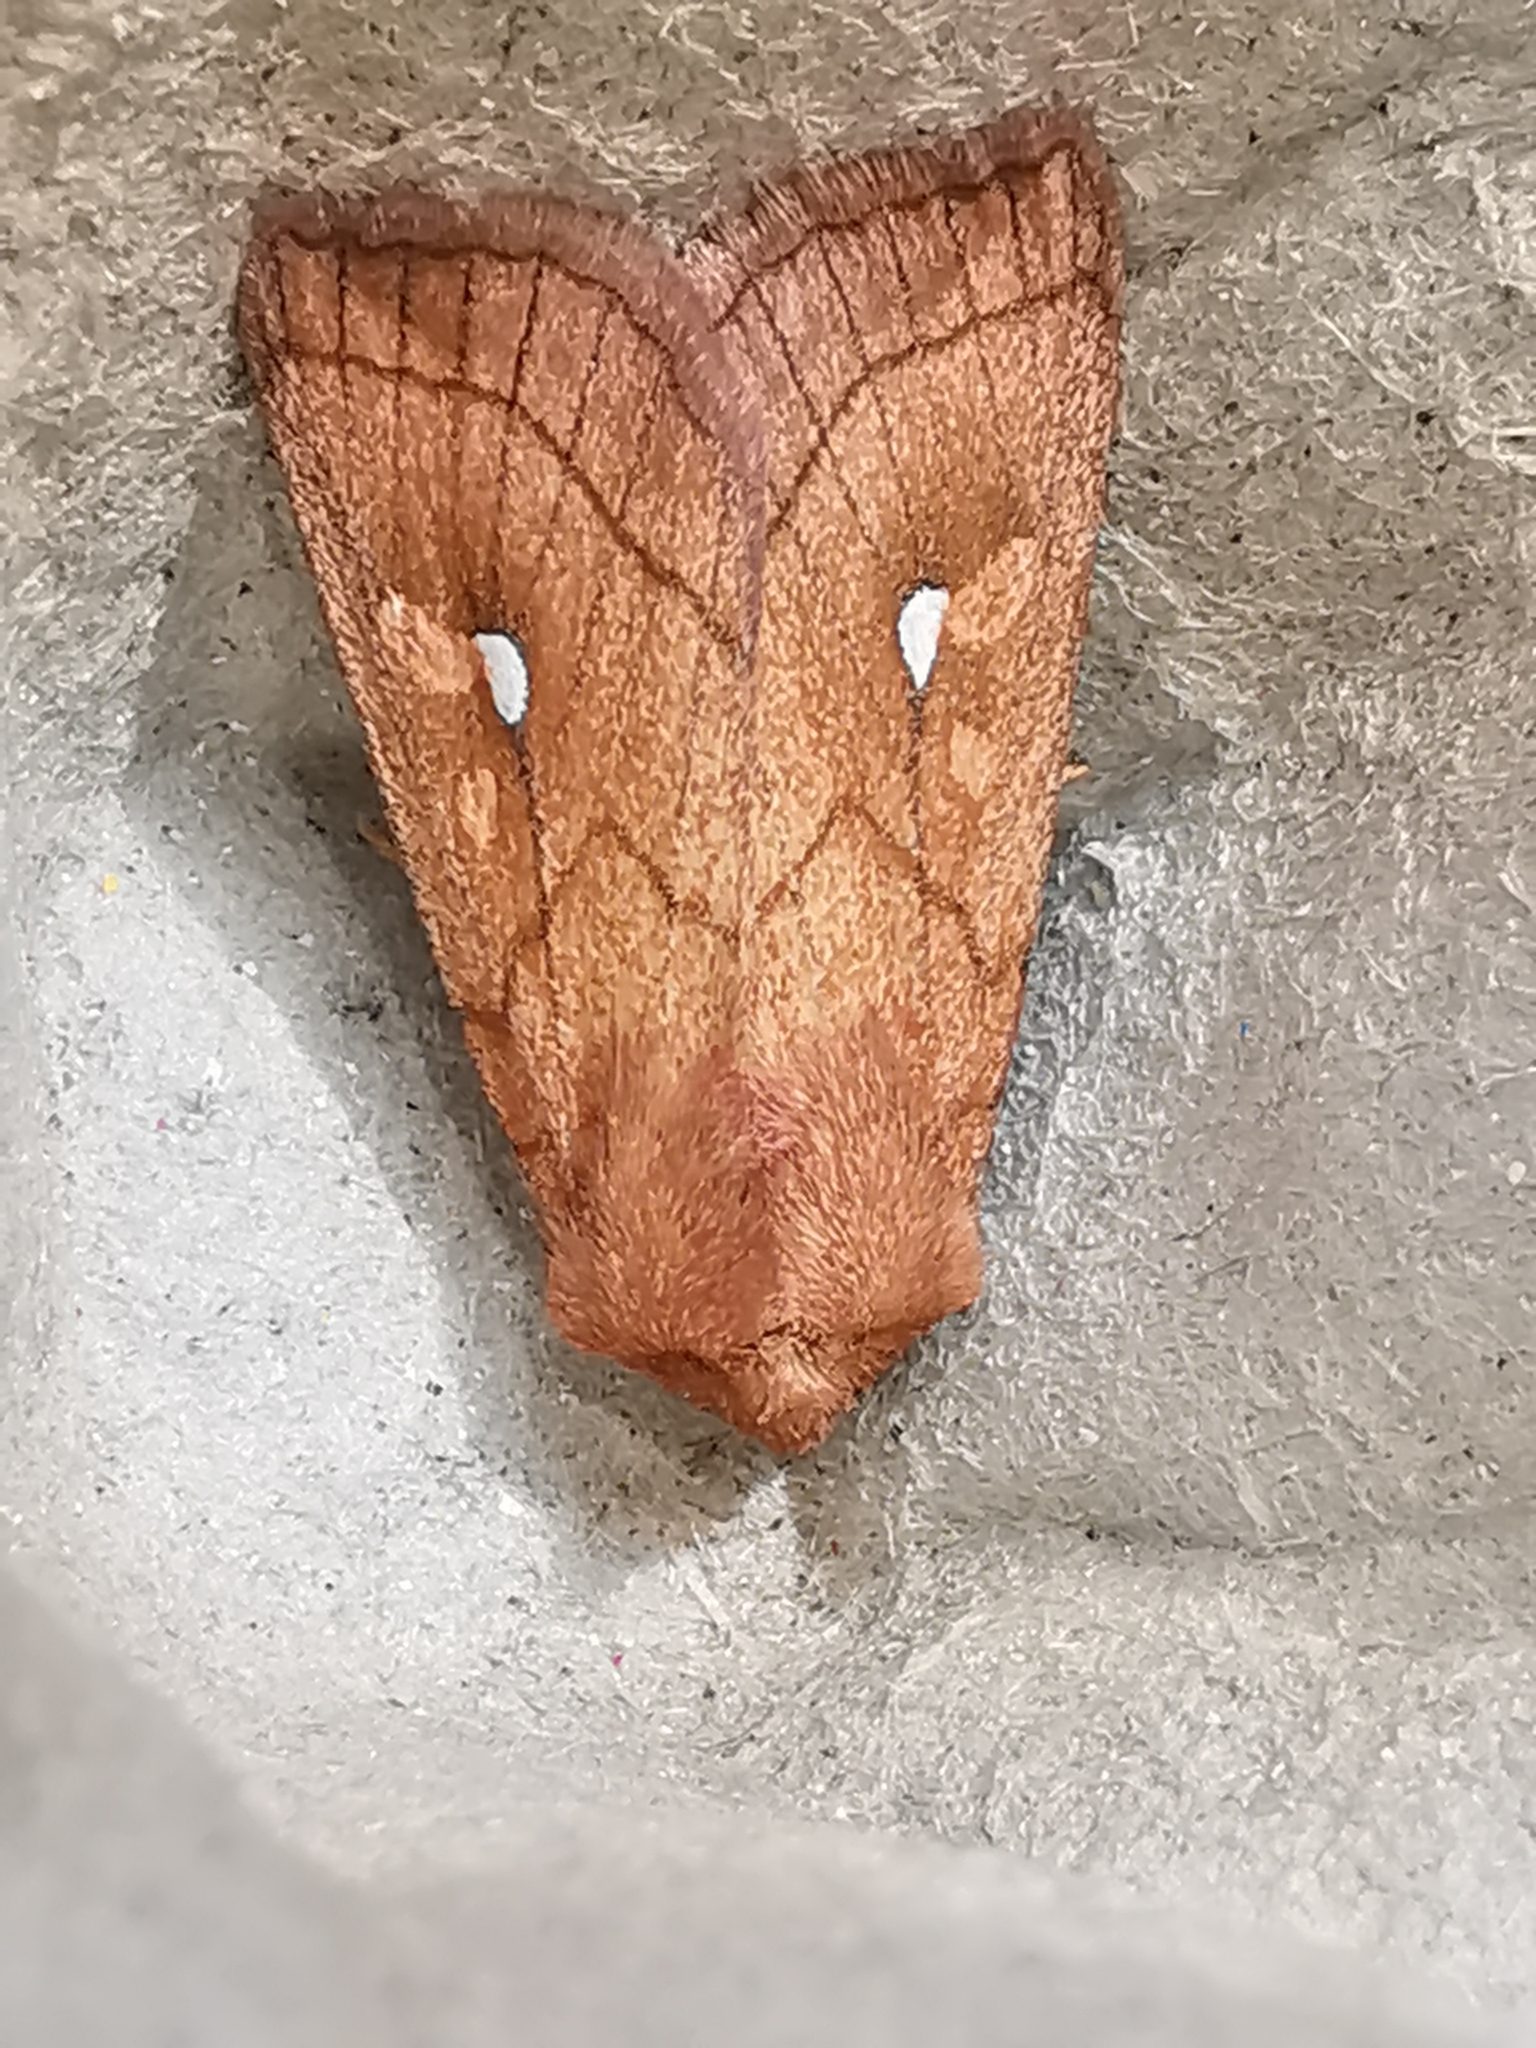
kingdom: Animalia
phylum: Arthropoda
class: Insecta
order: Lepidoptera
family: Noctuidae
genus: Mythimna
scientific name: Mythimna conigera
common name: Brown-line bright-eye
